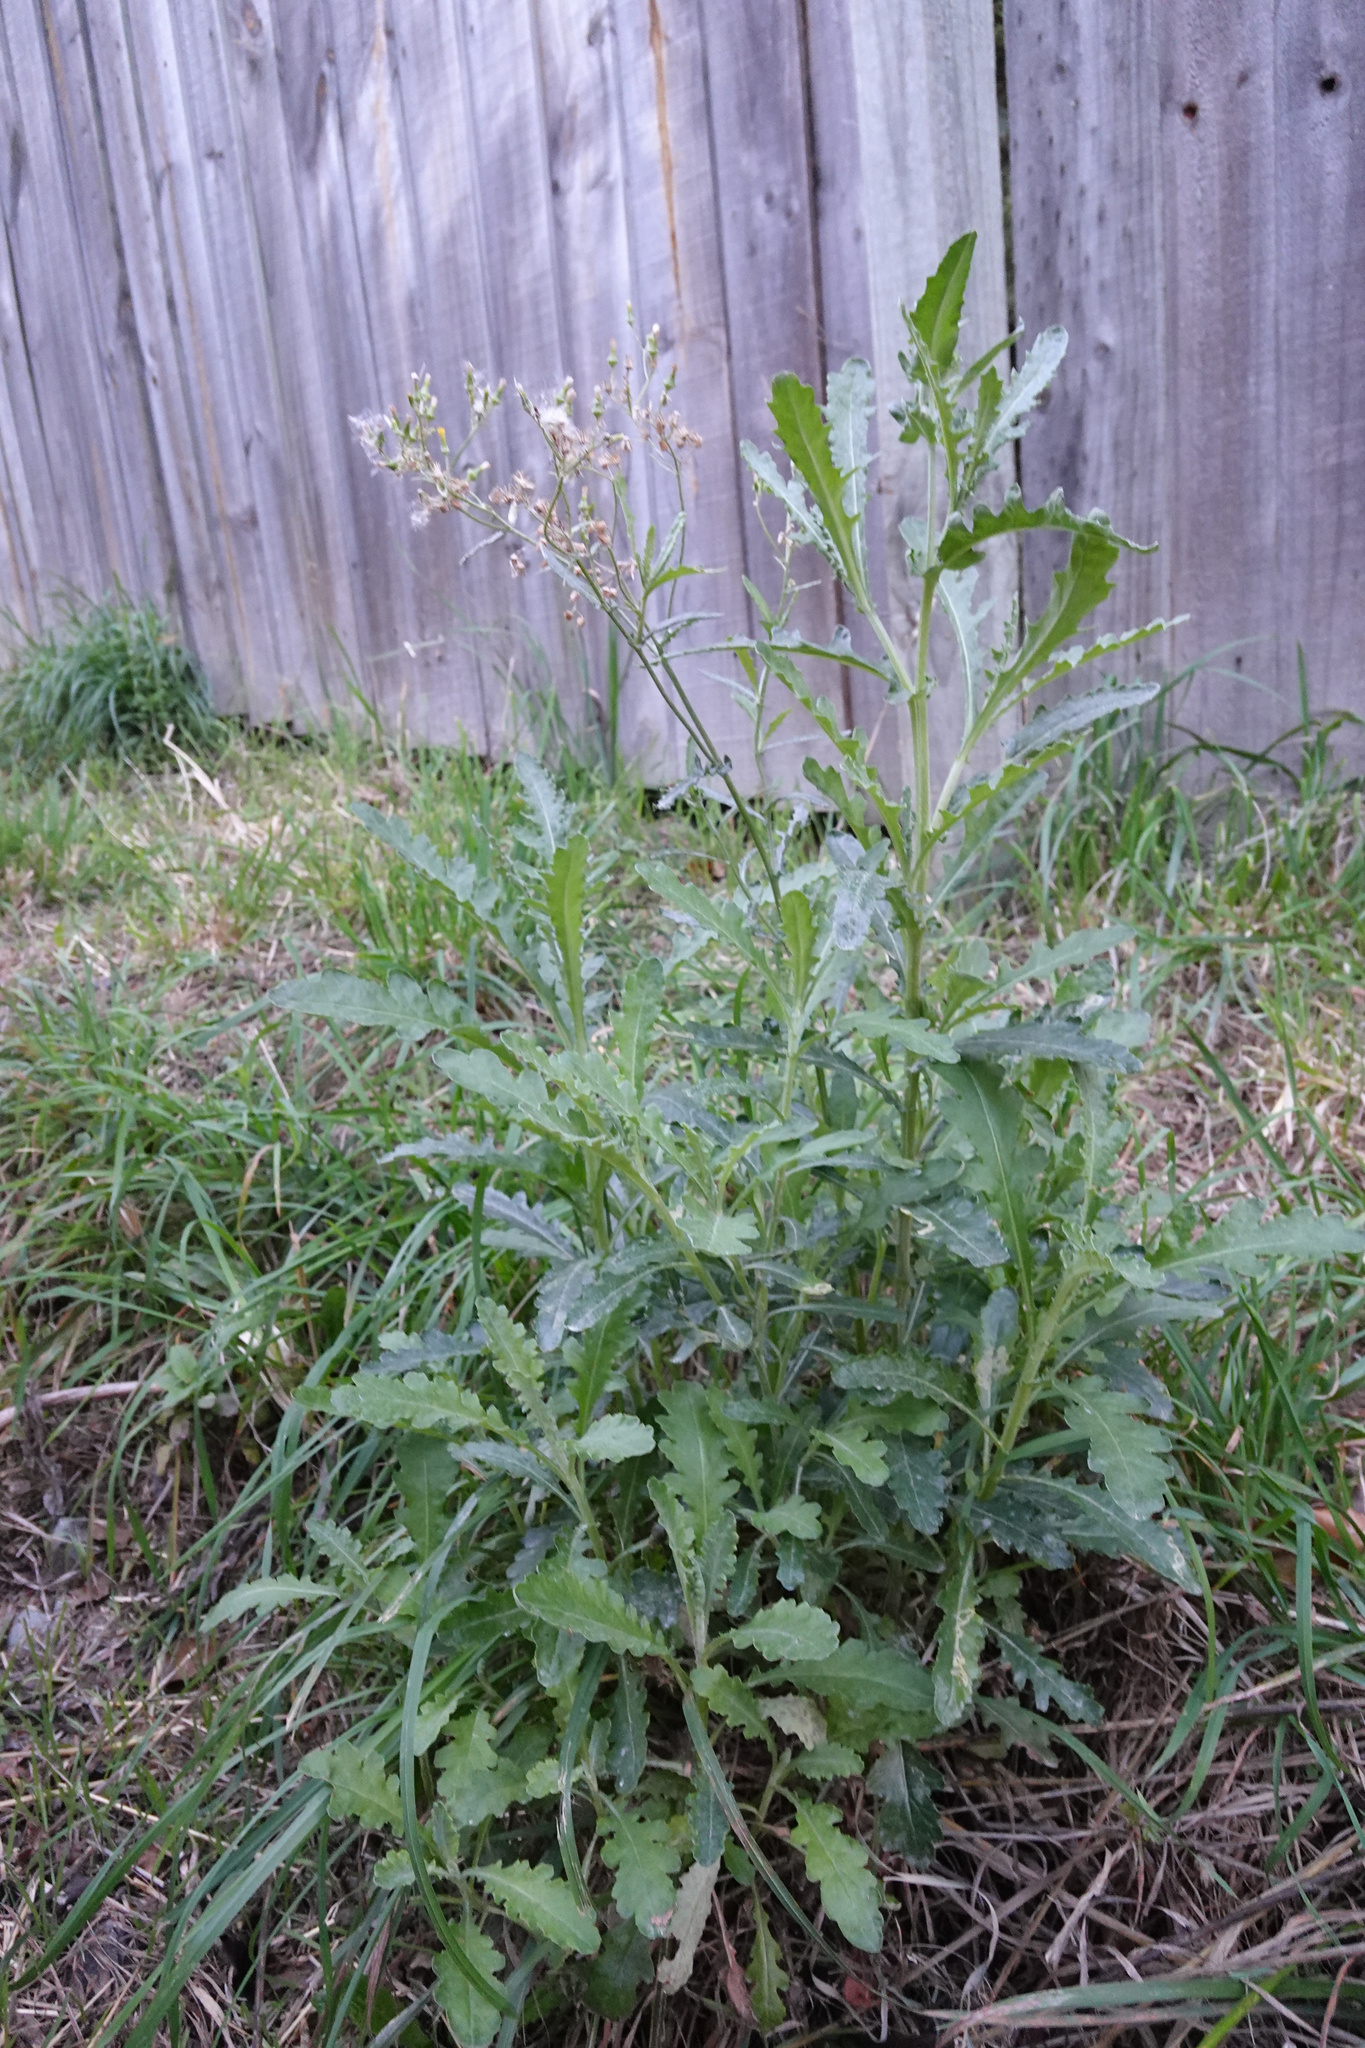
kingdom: Plantae
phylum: Tracheophyta
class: Magnoliopsida
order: Asterales
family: Asteraceae
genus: Senecio
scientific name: Senecio glomeratus
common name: Cutleaf burnweed
